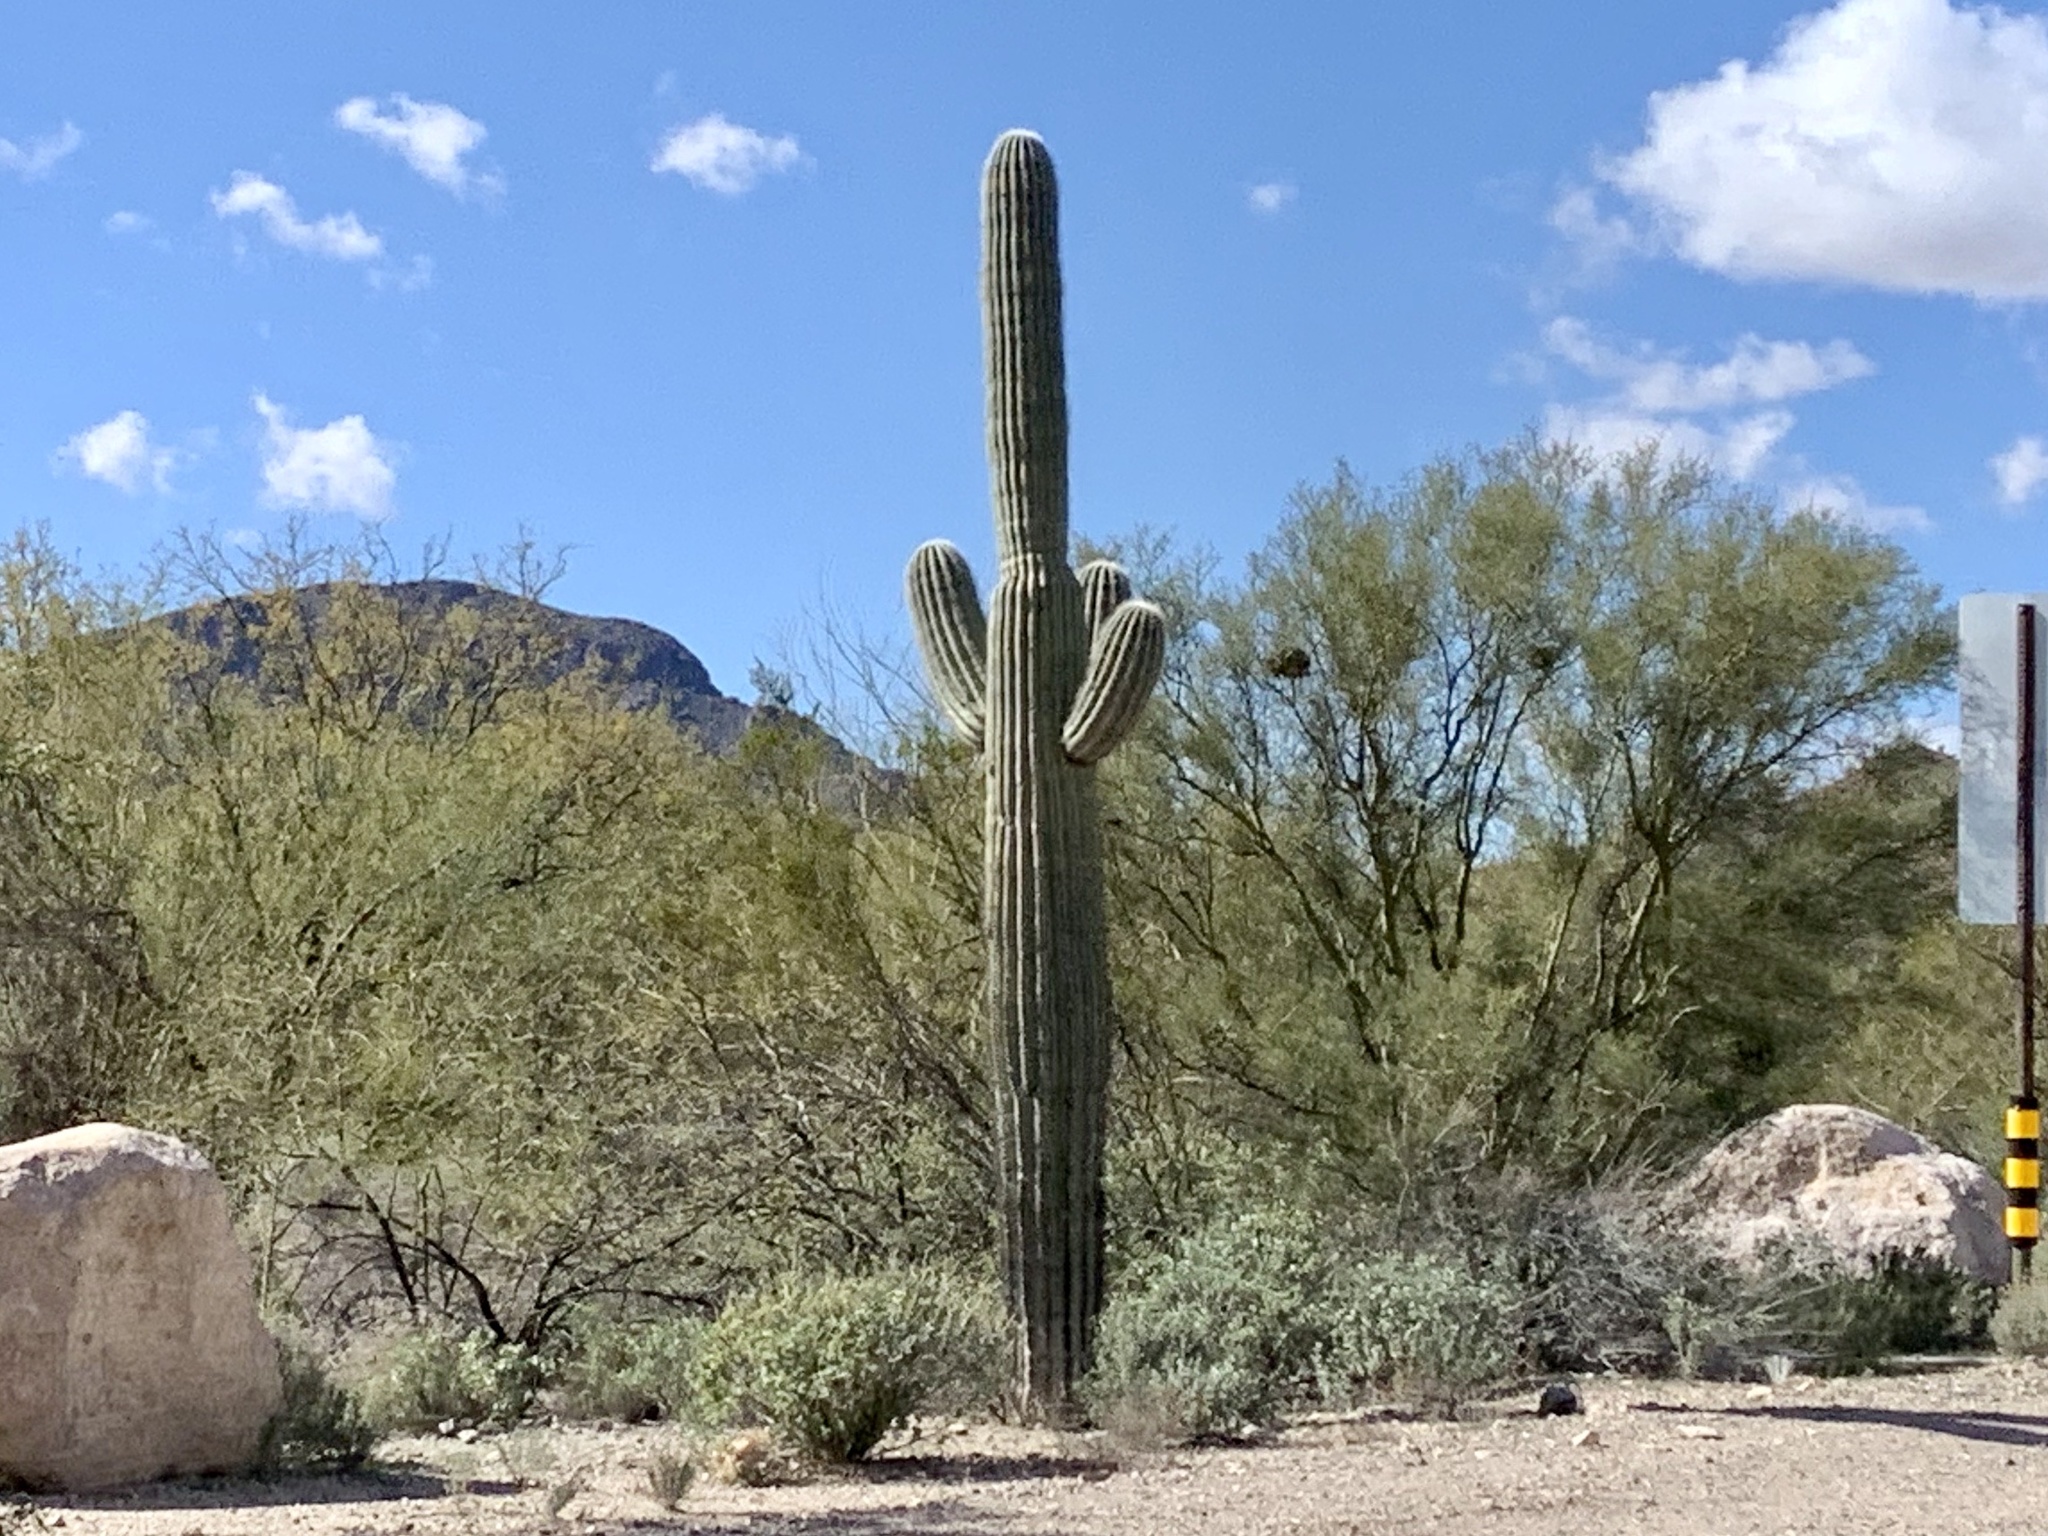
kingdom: Plantae
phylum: Tracheophyta
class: Magnoliopsida
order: Caryophyllales
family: Cactaceae
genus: Carnegiea
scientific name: Carnegiea gigantea
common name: Saguaro
